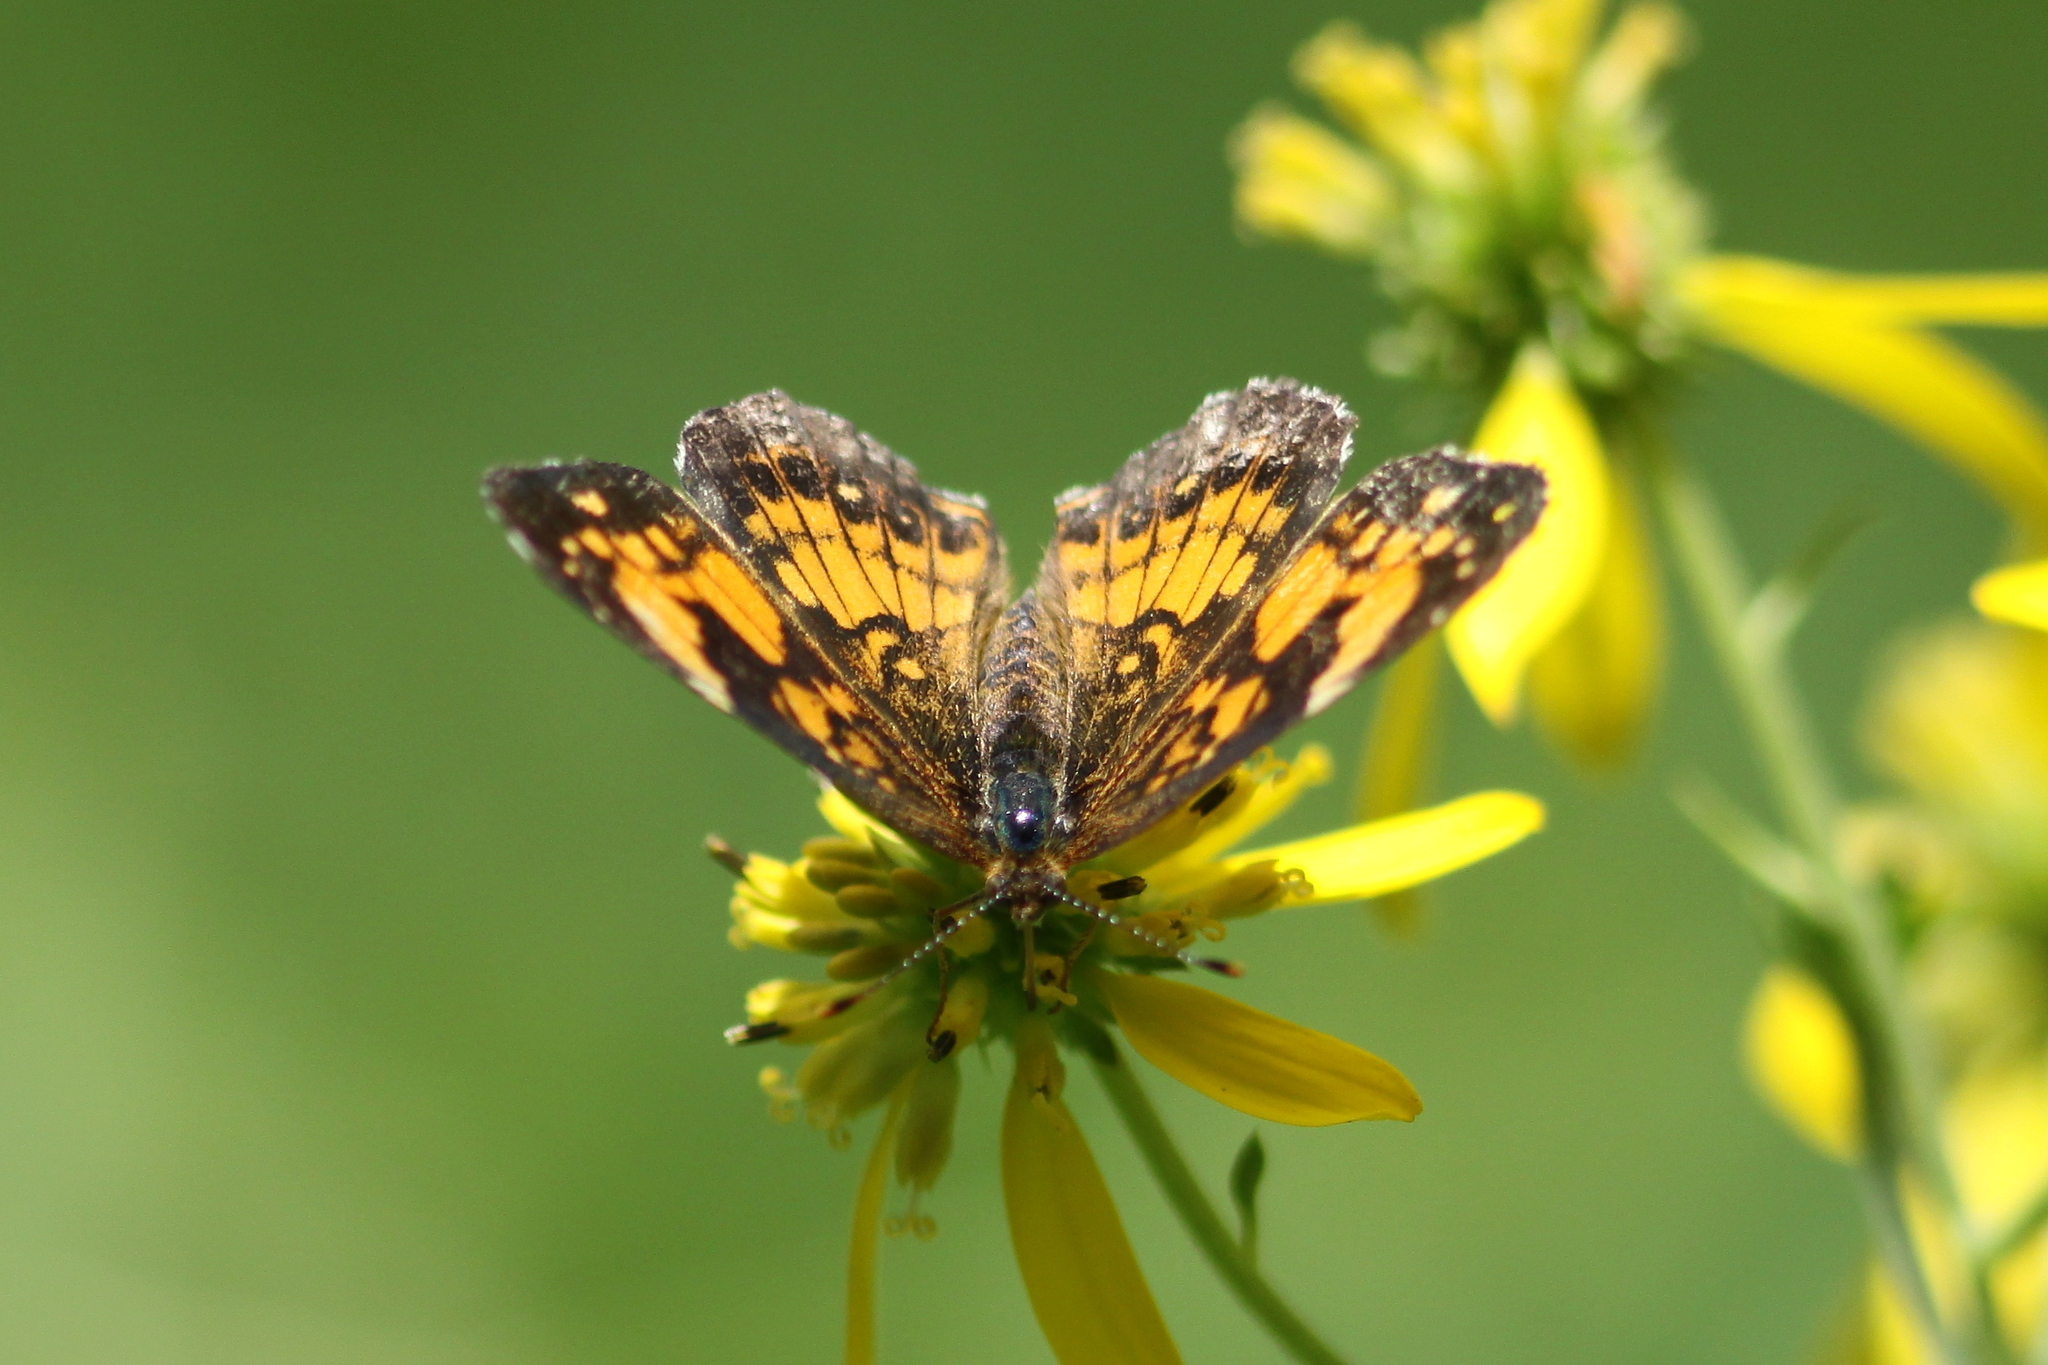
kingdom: Animalia
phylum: Arthropoda
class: Insecta
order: Lepidoptera
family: Nymphalidae
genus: Chlosyne
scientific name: Chlosyne nycteis
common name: Silvery checkerspot
